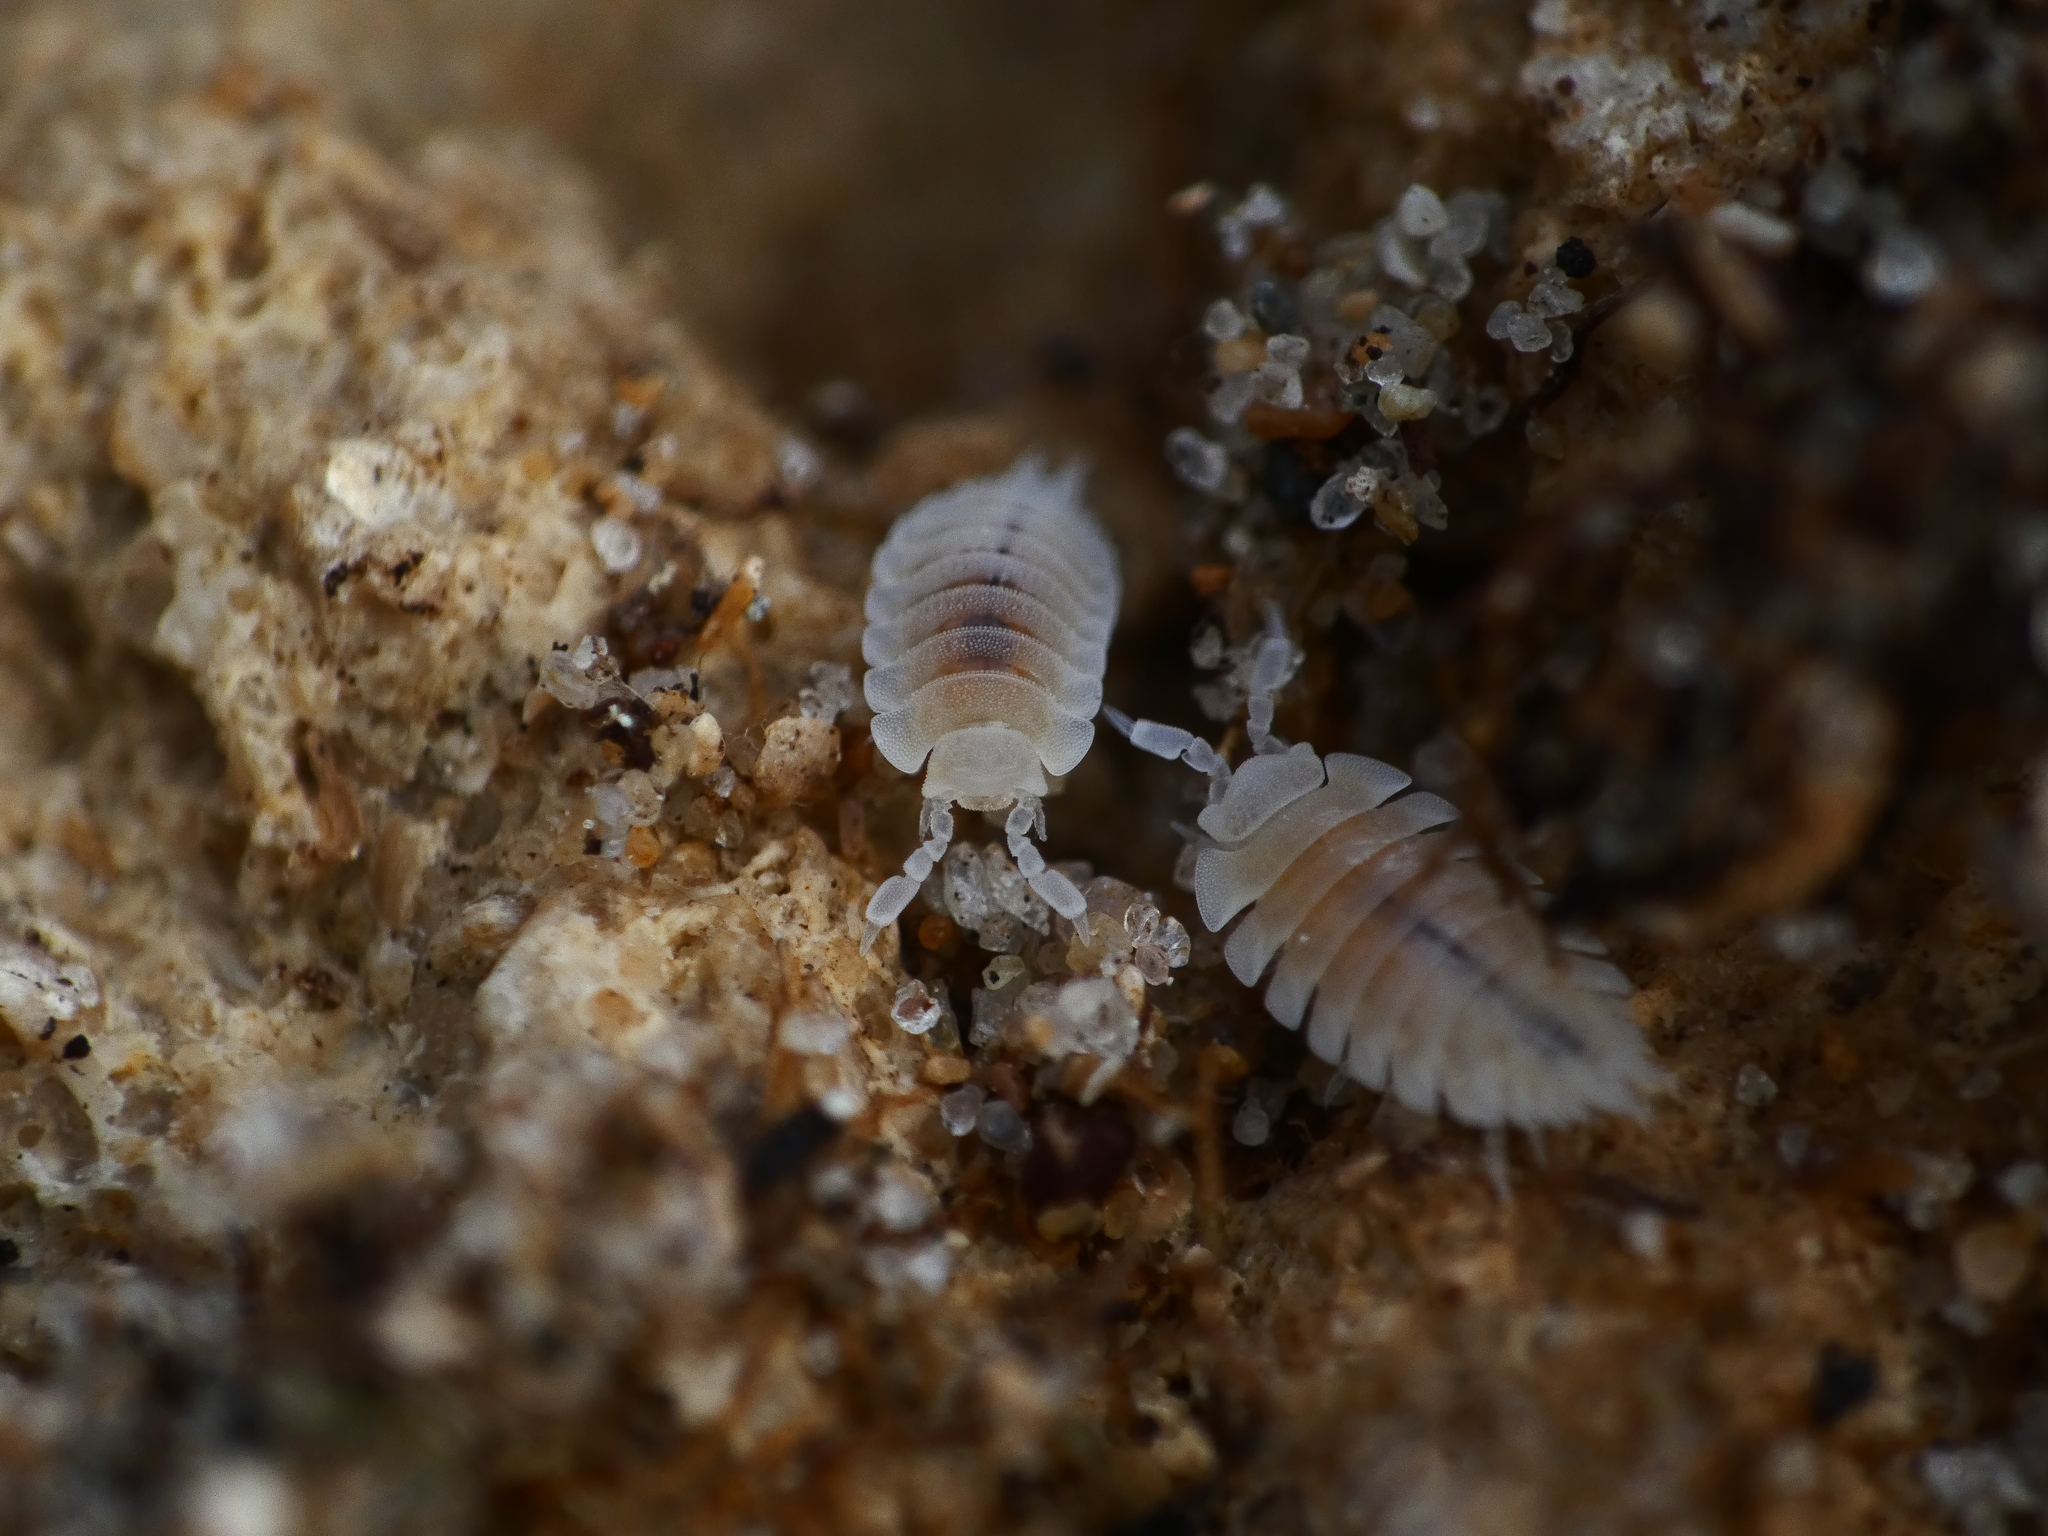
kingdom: Animalia
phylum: Arthropoda
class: Malacostraca
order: Isopoda
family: Platyarthridae
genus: Platyarthrus
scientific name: Platyarthrus hoffmannseggii
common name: Ant woodlouse
